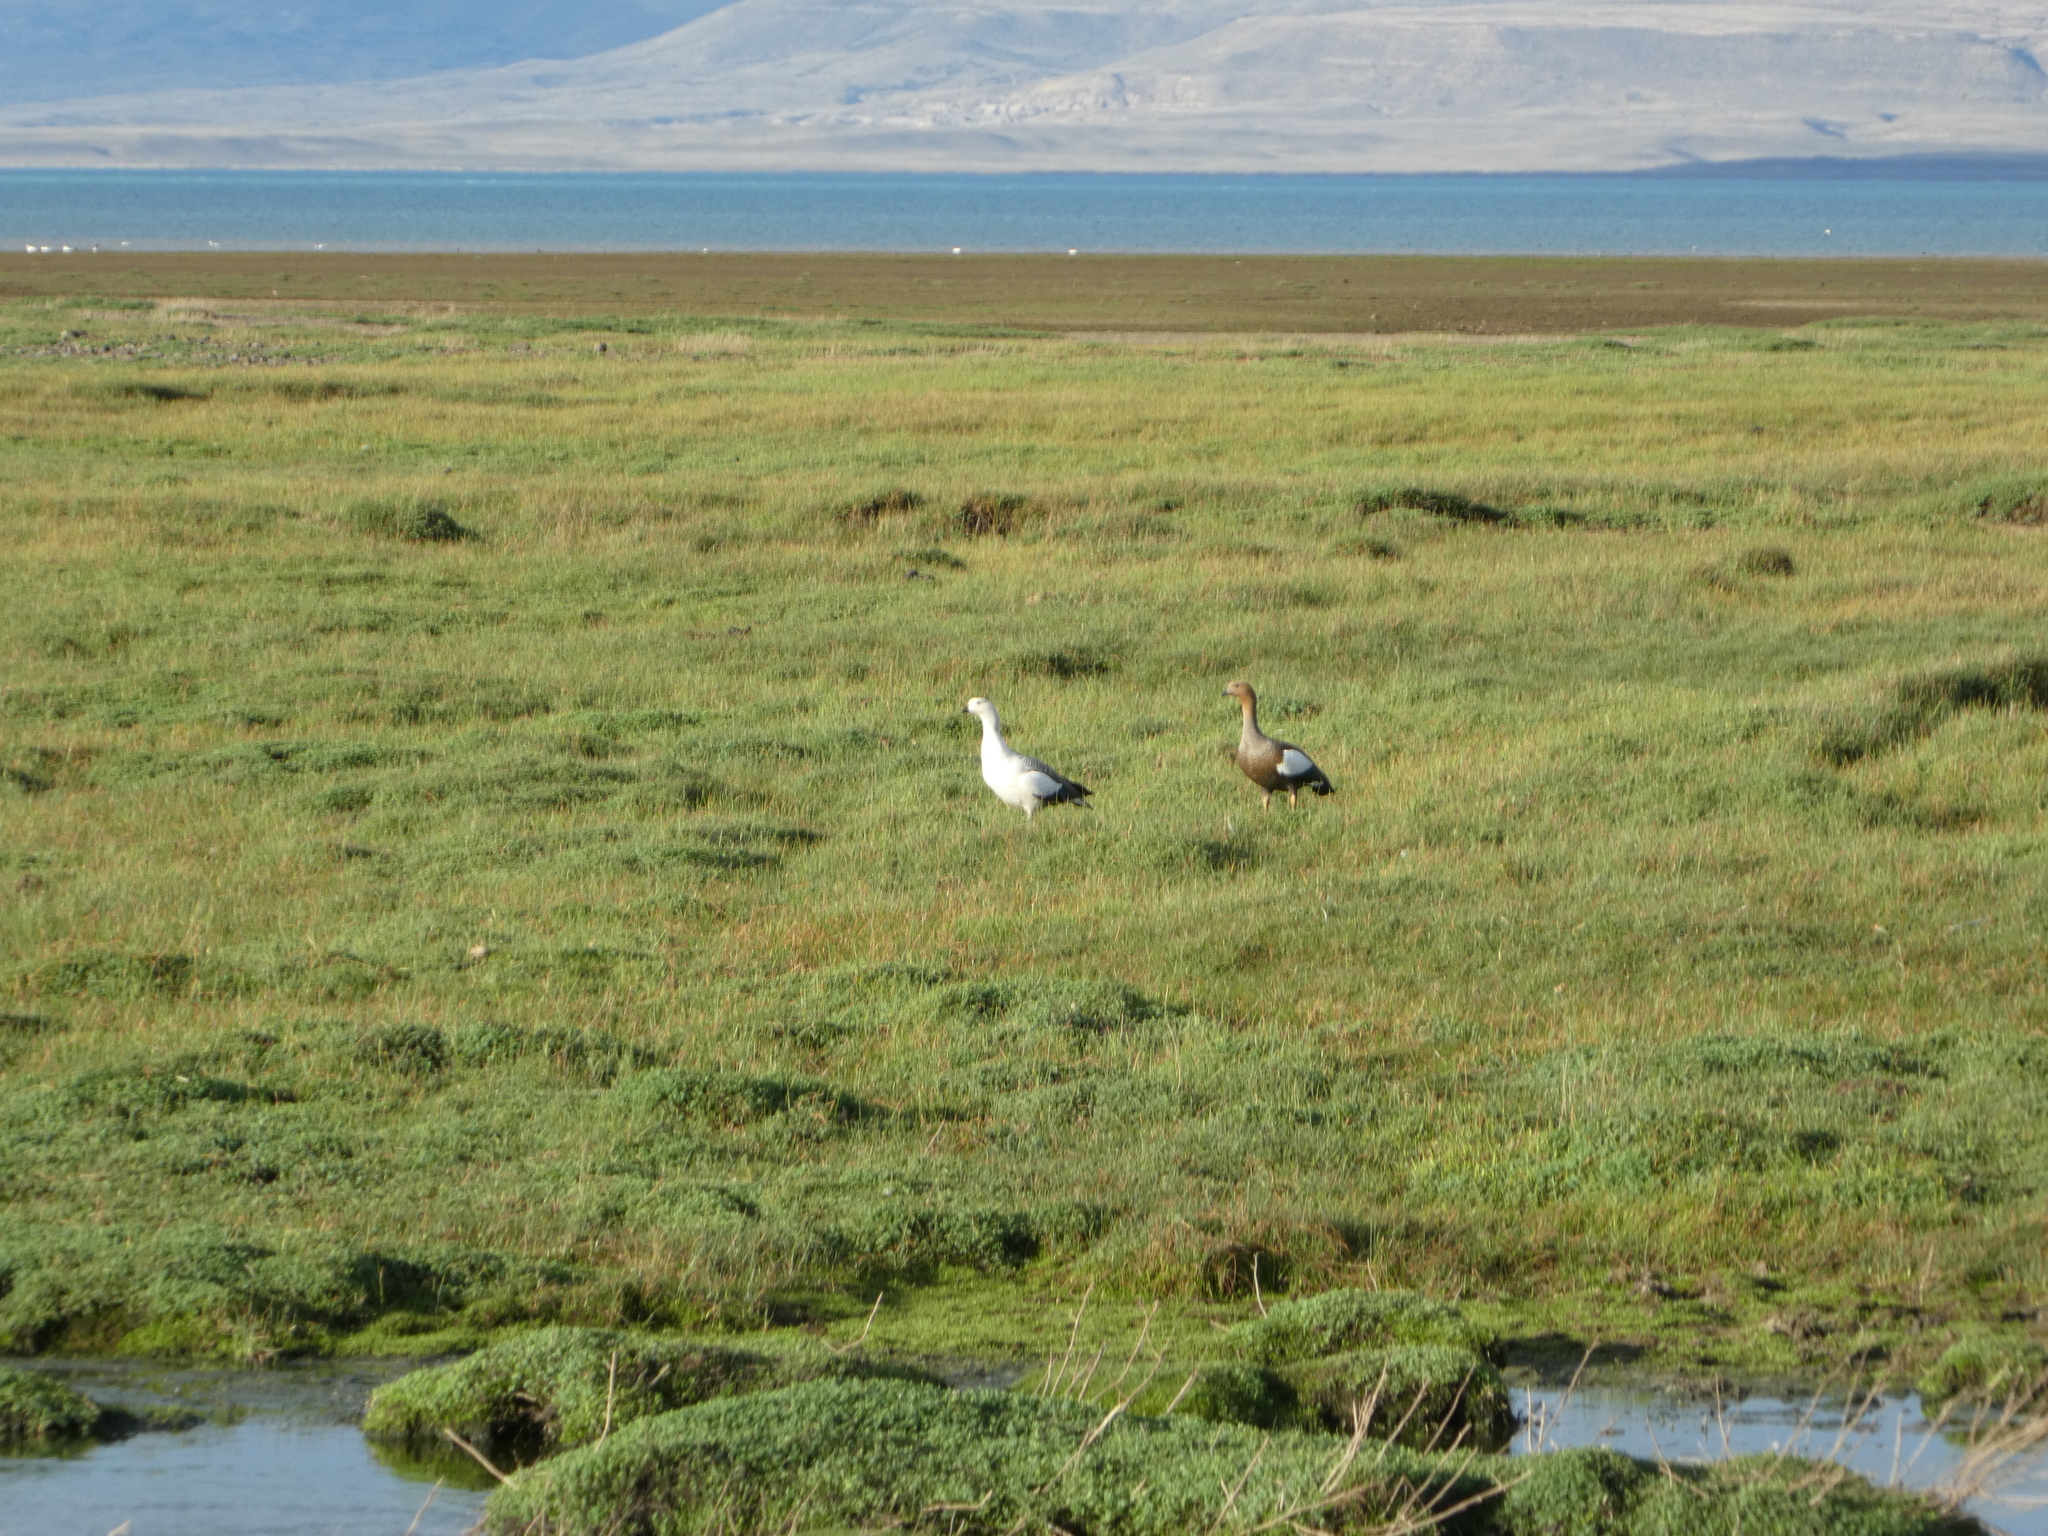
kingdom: Animalia
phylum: Chordata
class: Aves
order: Anseriformes
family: Anatidae
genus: Chloephaga
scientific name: Chloephaga picta
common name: Upland goose
